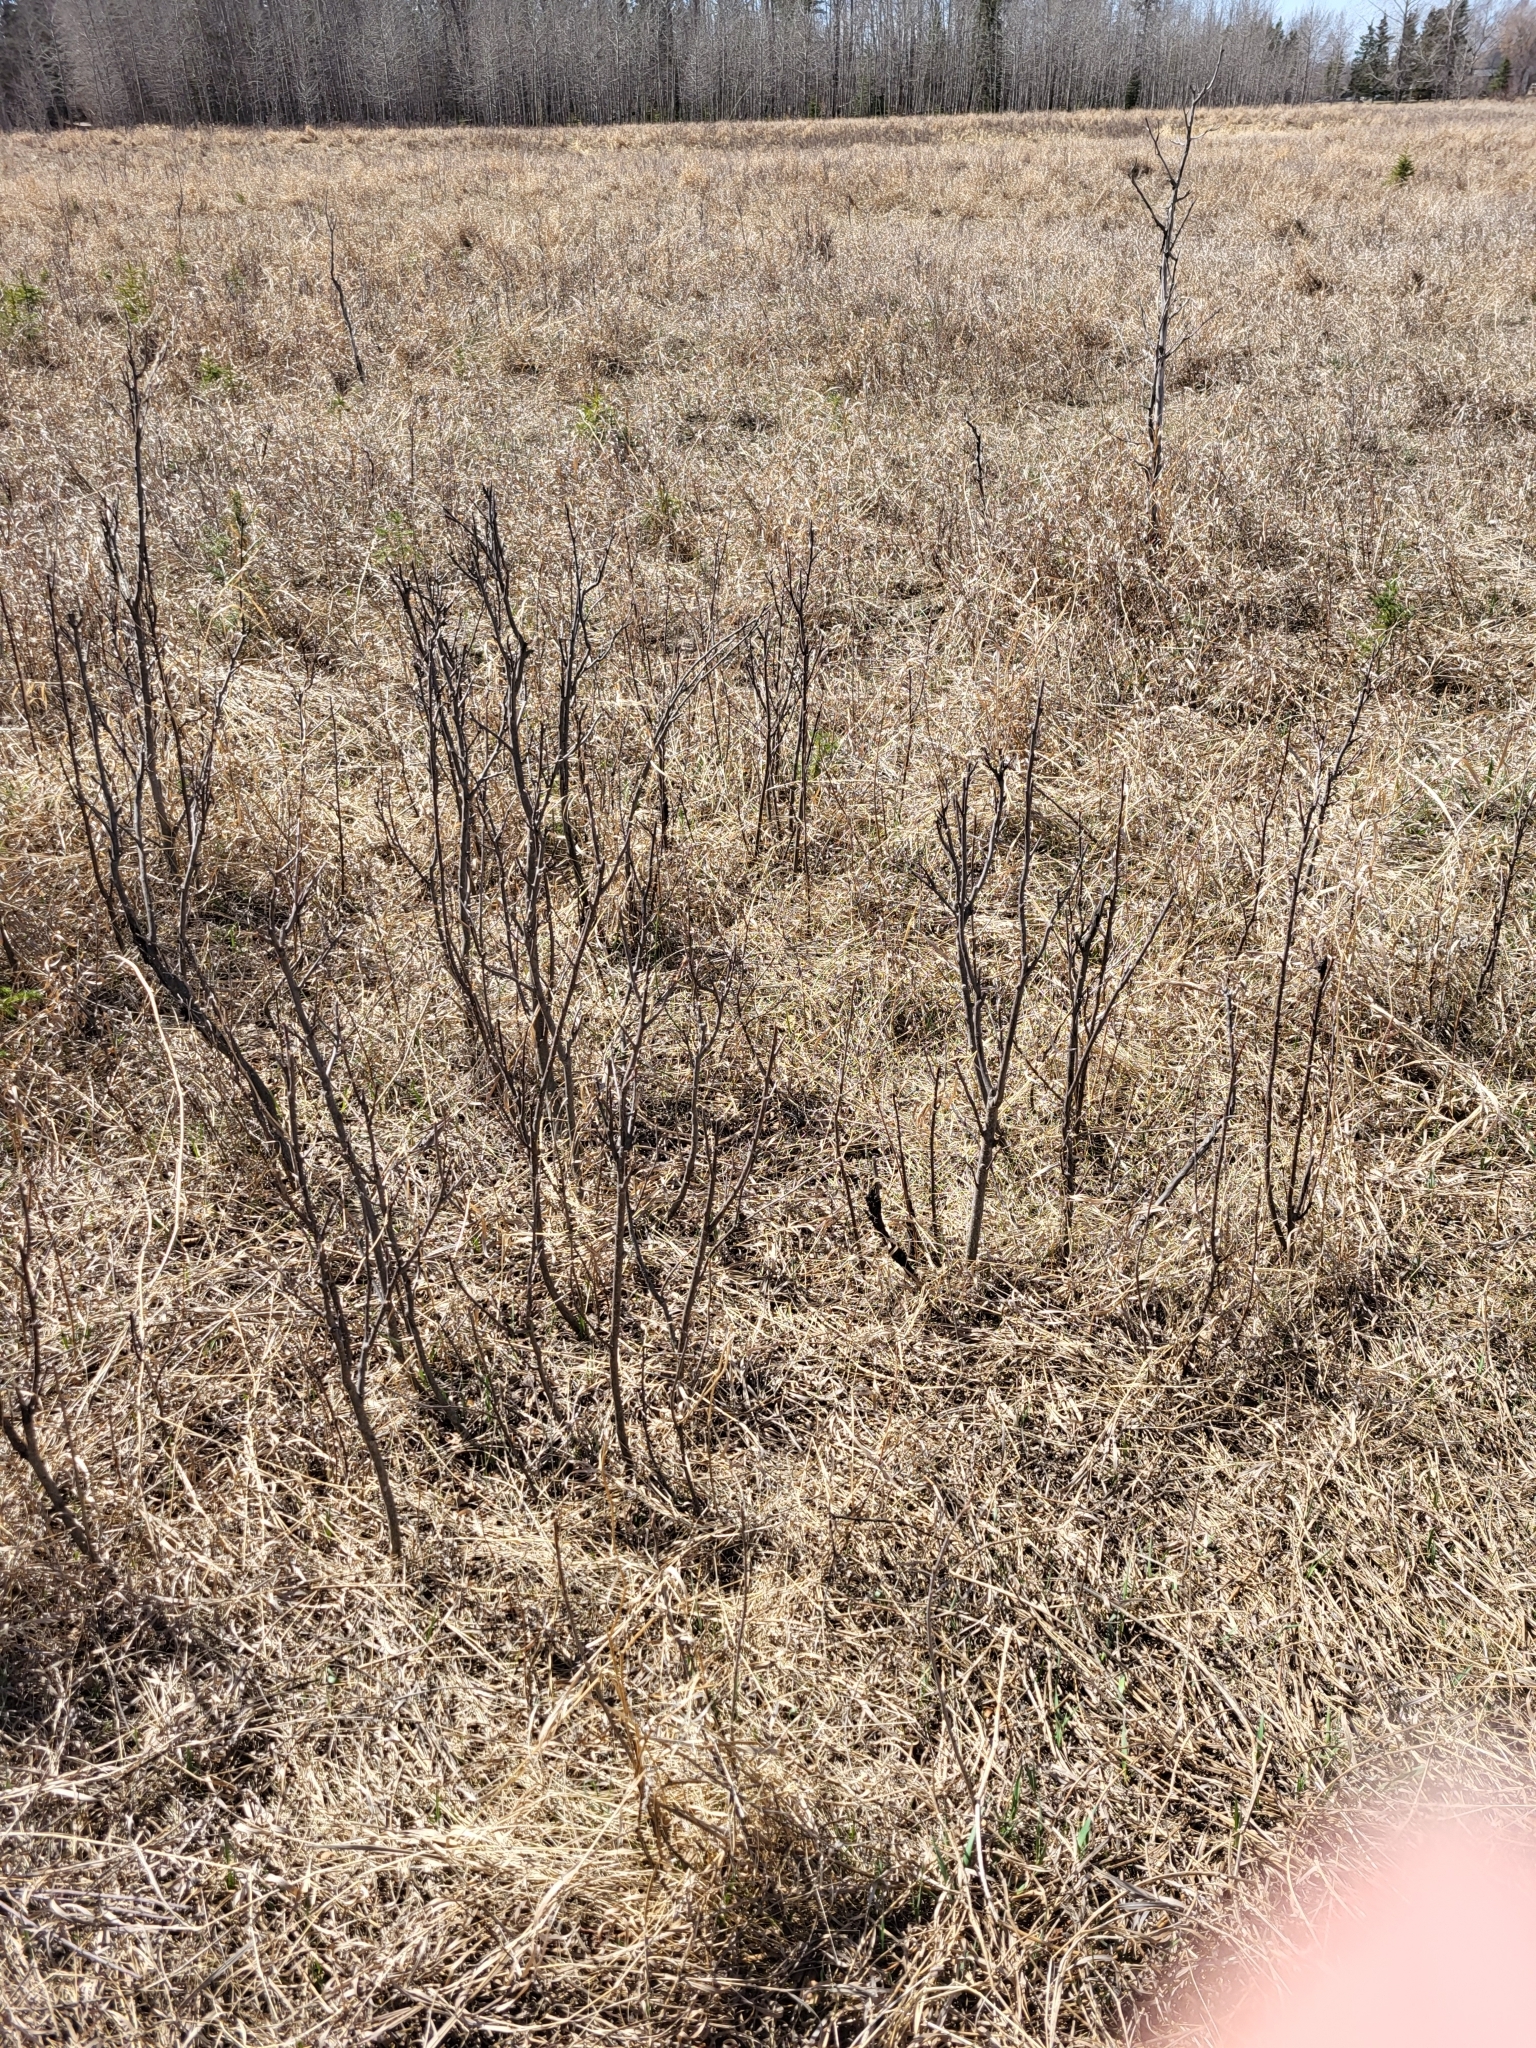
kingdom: Fungi
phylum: Ascomycota
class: Dothideomycetes
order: Venturiales
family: Venturiaceae
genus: Apiosporina
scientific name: Apiosporina morbosa
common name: Black knot
